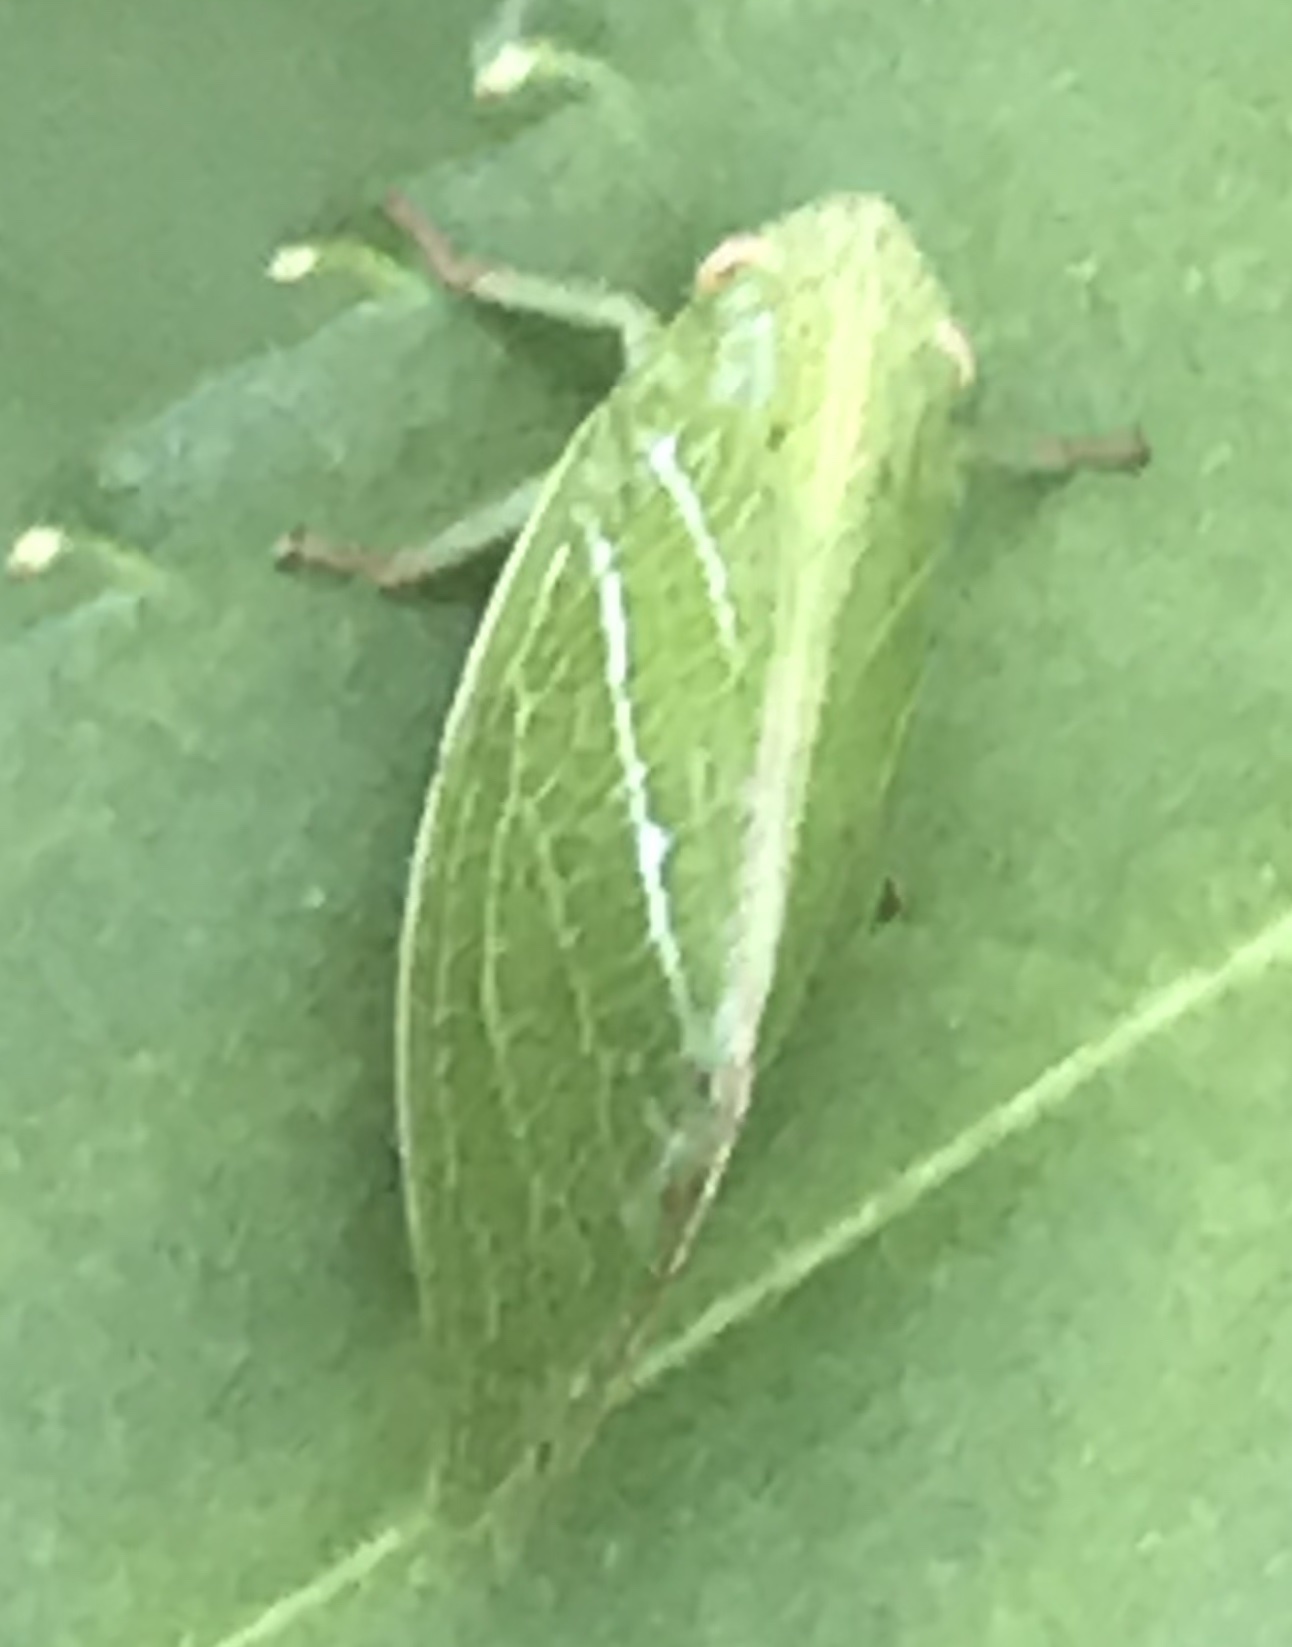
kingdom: Animalia
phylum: Arthropoda
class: Insecta
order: Hemiptera
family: Acanaloniidae
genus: Acanalonia
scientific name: Acanalonia conica
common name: Green cone-headed planthopper
